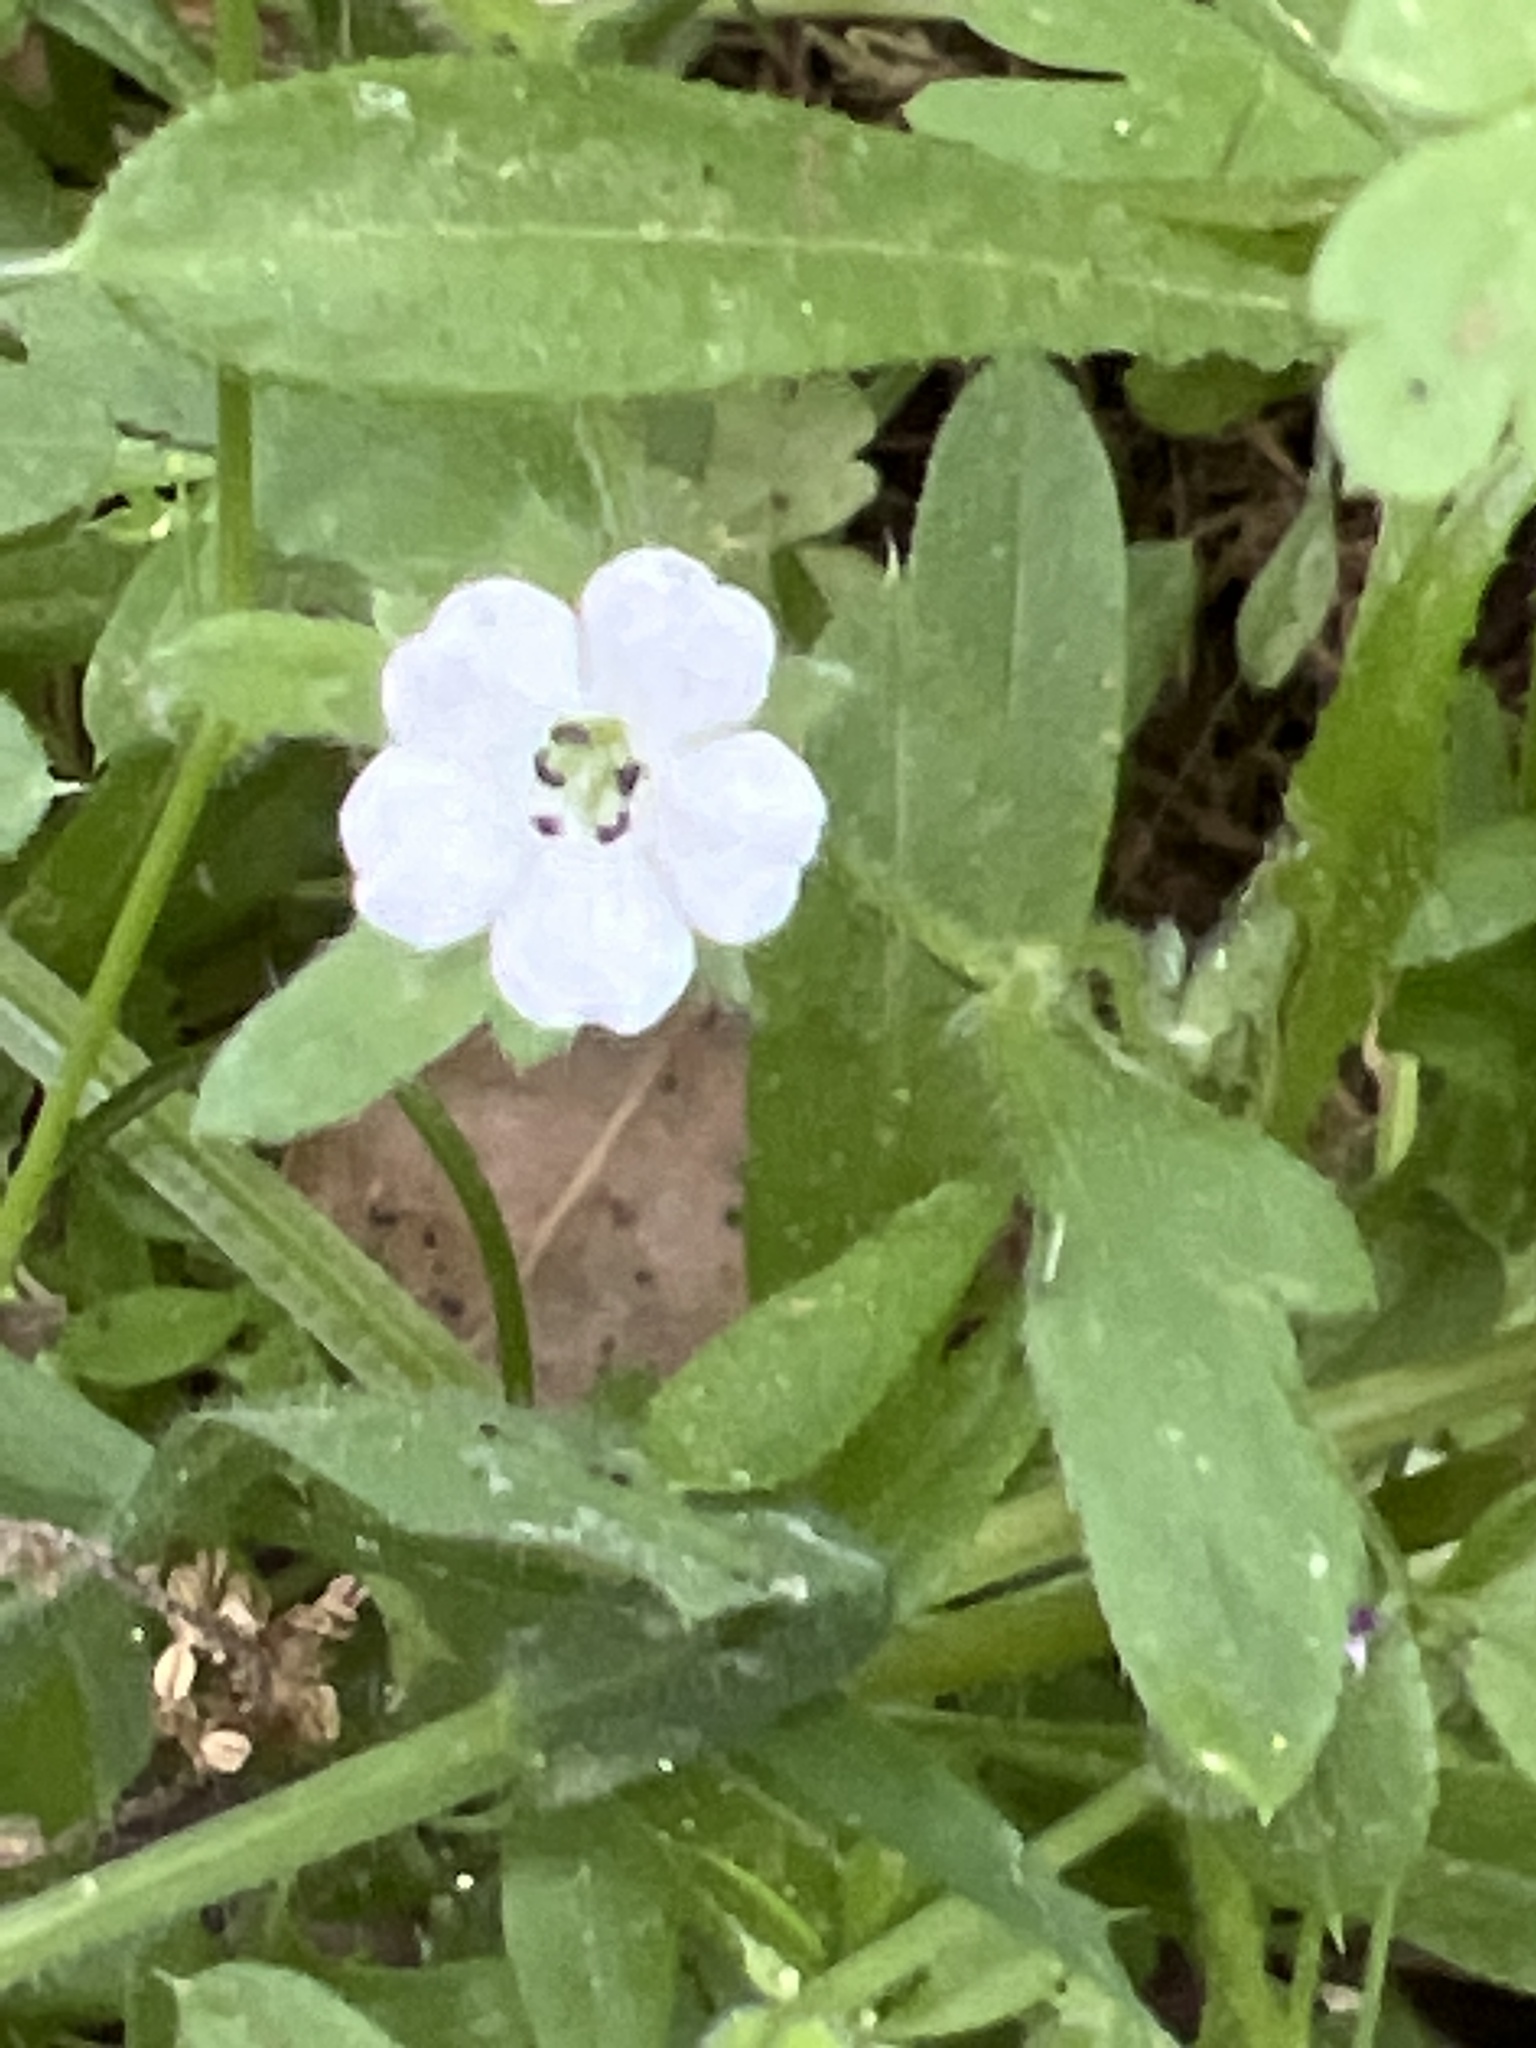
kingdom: Plantae
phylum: Tracheophyta
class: Magnoliopsida
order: Boraginales
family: Hydrophyllaceae
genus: Nemophila
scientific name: Nemophila parviflora
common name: Small-flowered baby-blue-eyes
